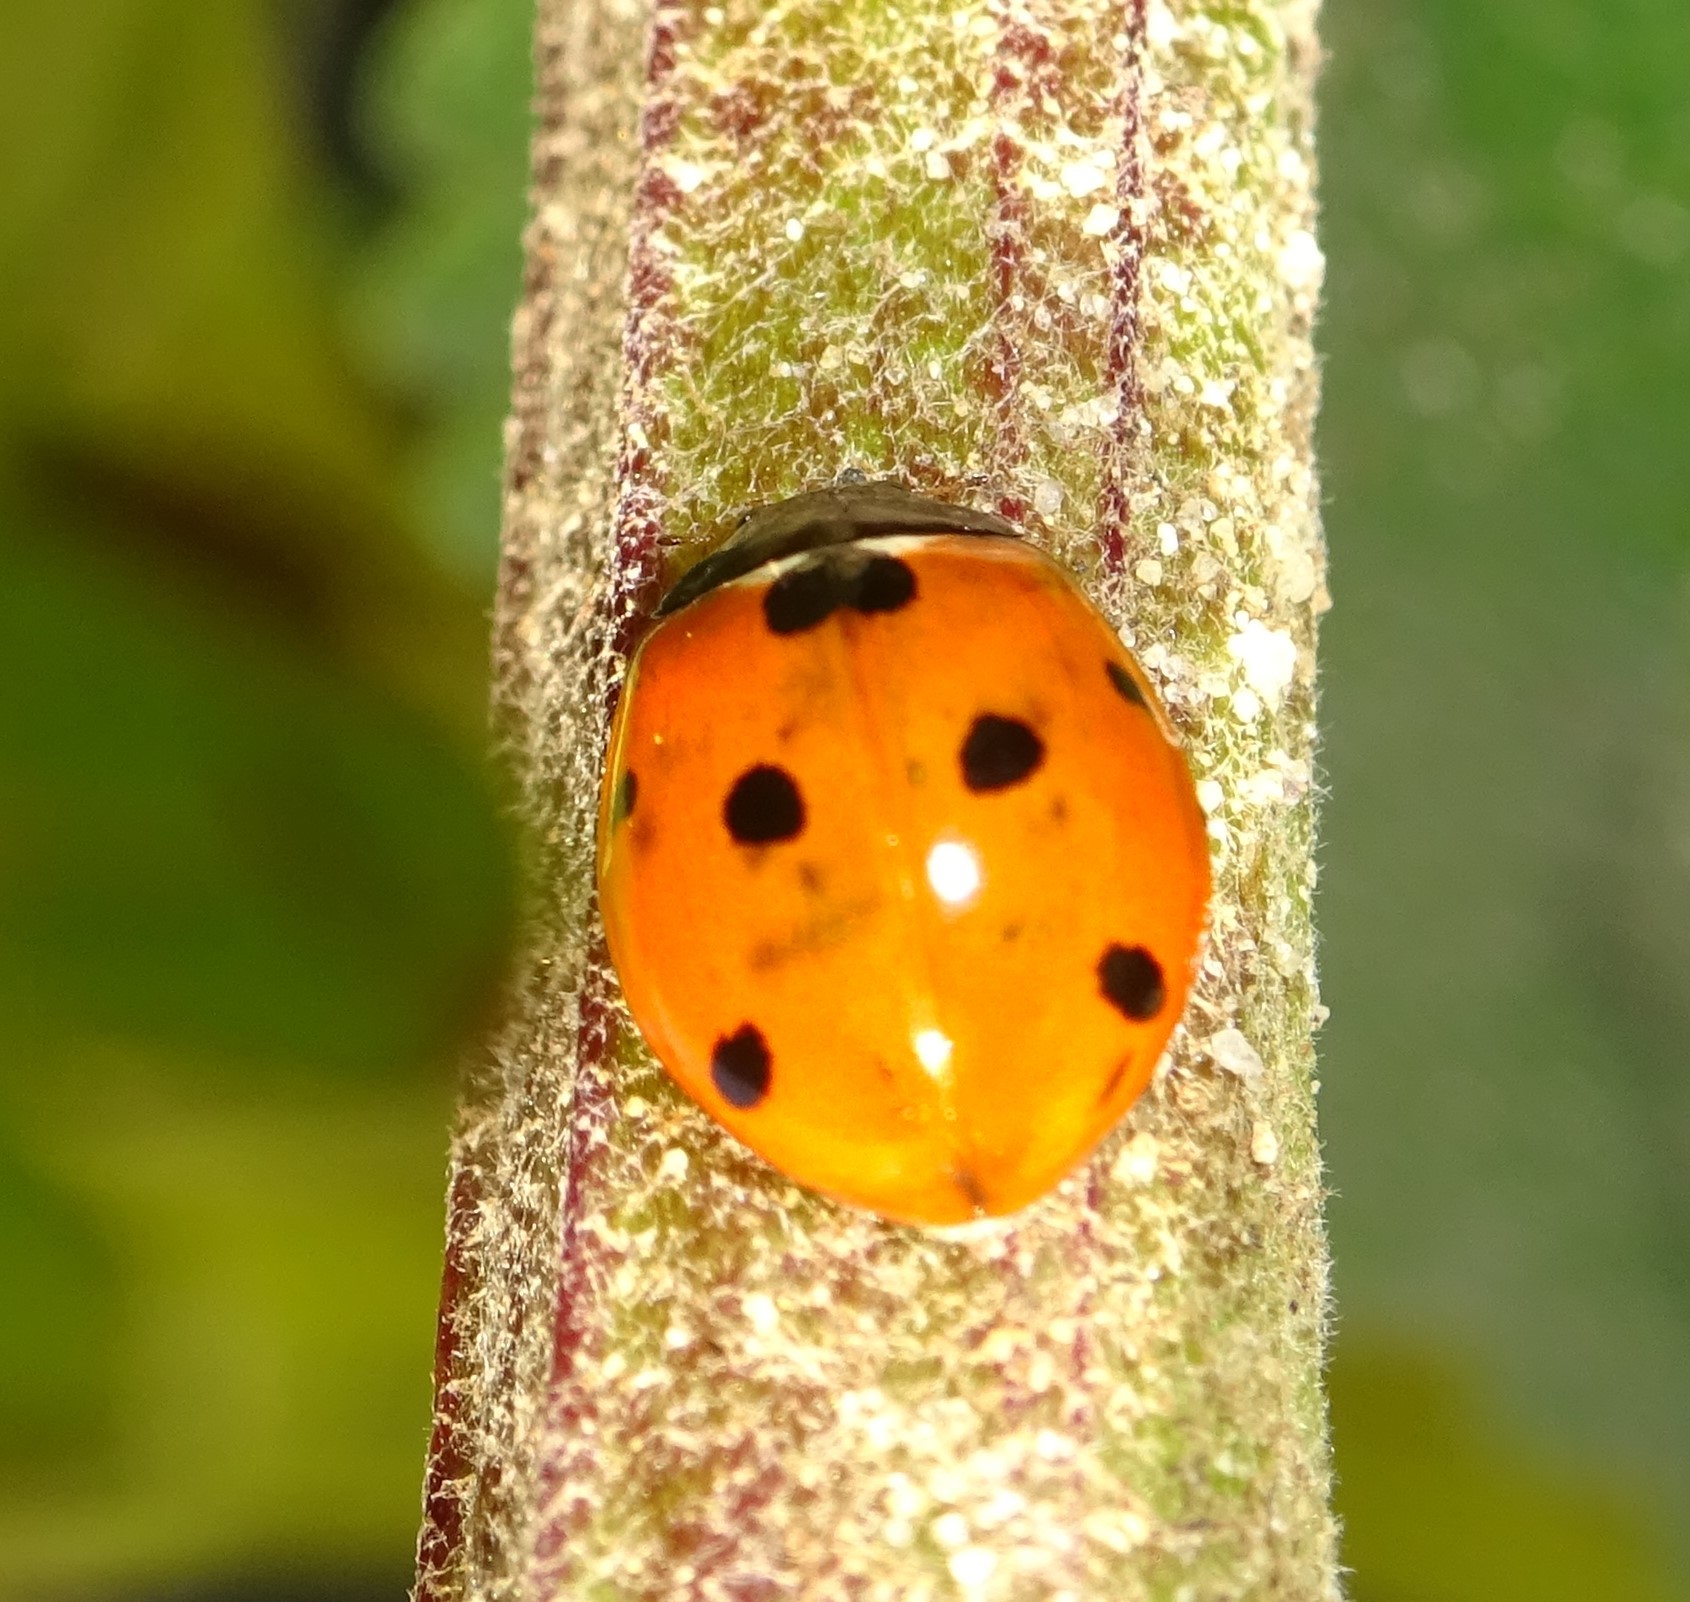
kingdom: Animalia
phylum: Arthropoda
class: Insecta
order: Coleoptera
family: Coccinellidae
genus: Coccinella
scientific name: Coccinella septempunctata
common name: Sevenspotted lady beetle
